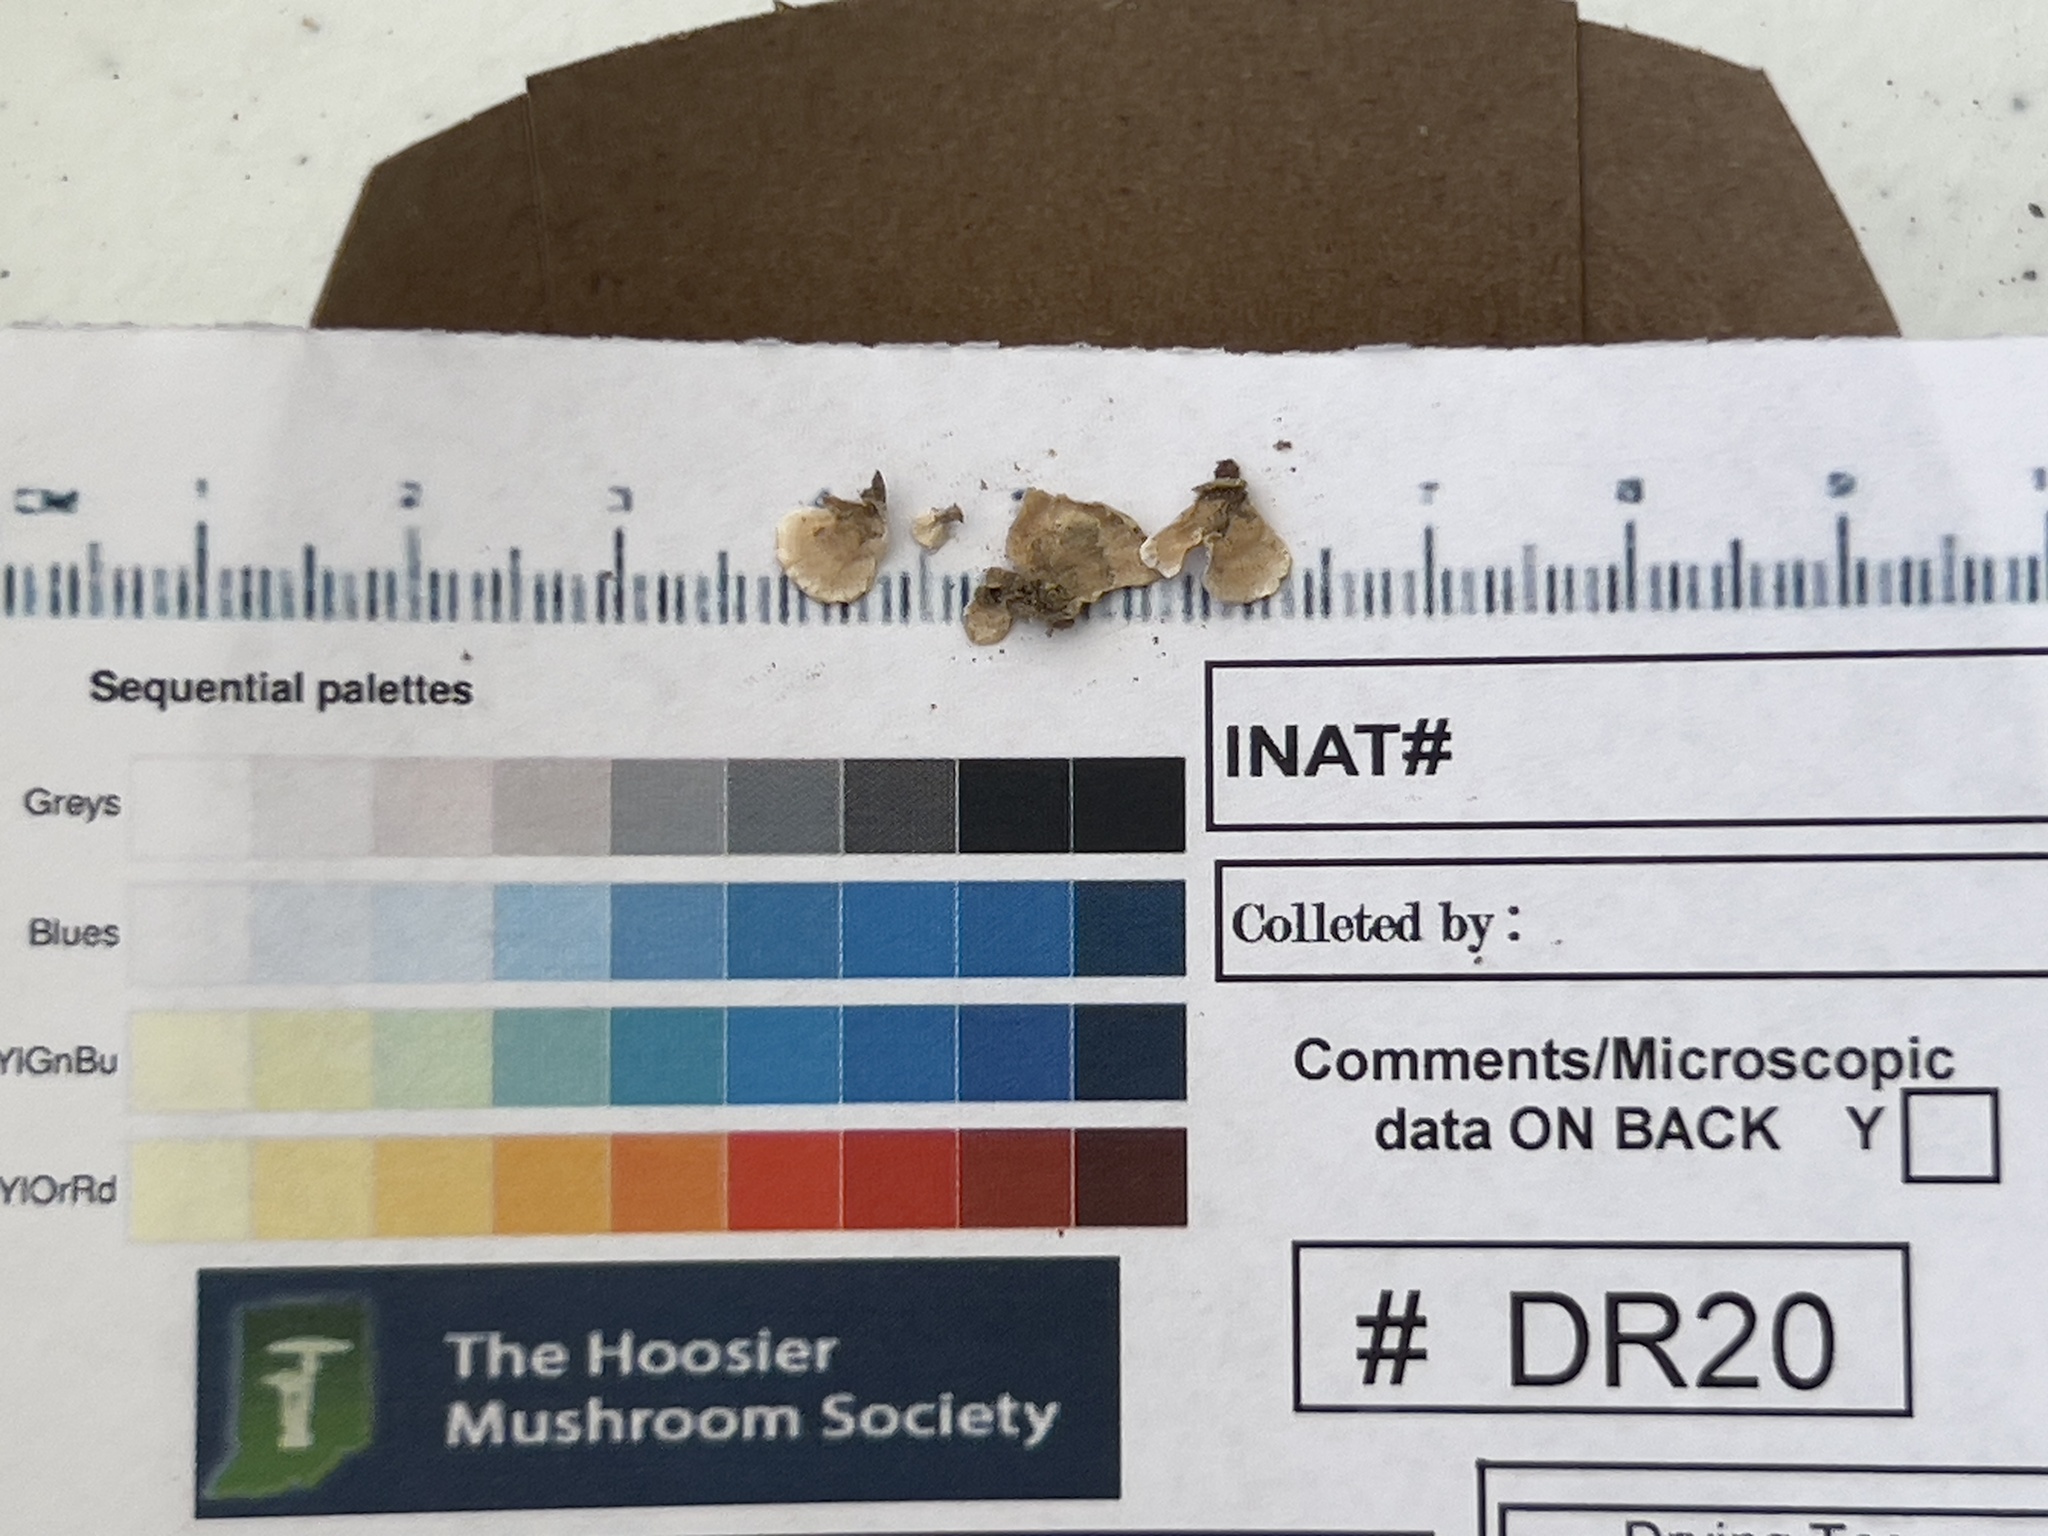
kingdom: Fungi
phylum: Basidiomycota
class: Agaricomycetes
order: Russulales
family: Stereaceae
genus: Stereum
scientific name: Stereum striatum
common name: Silky parchment
